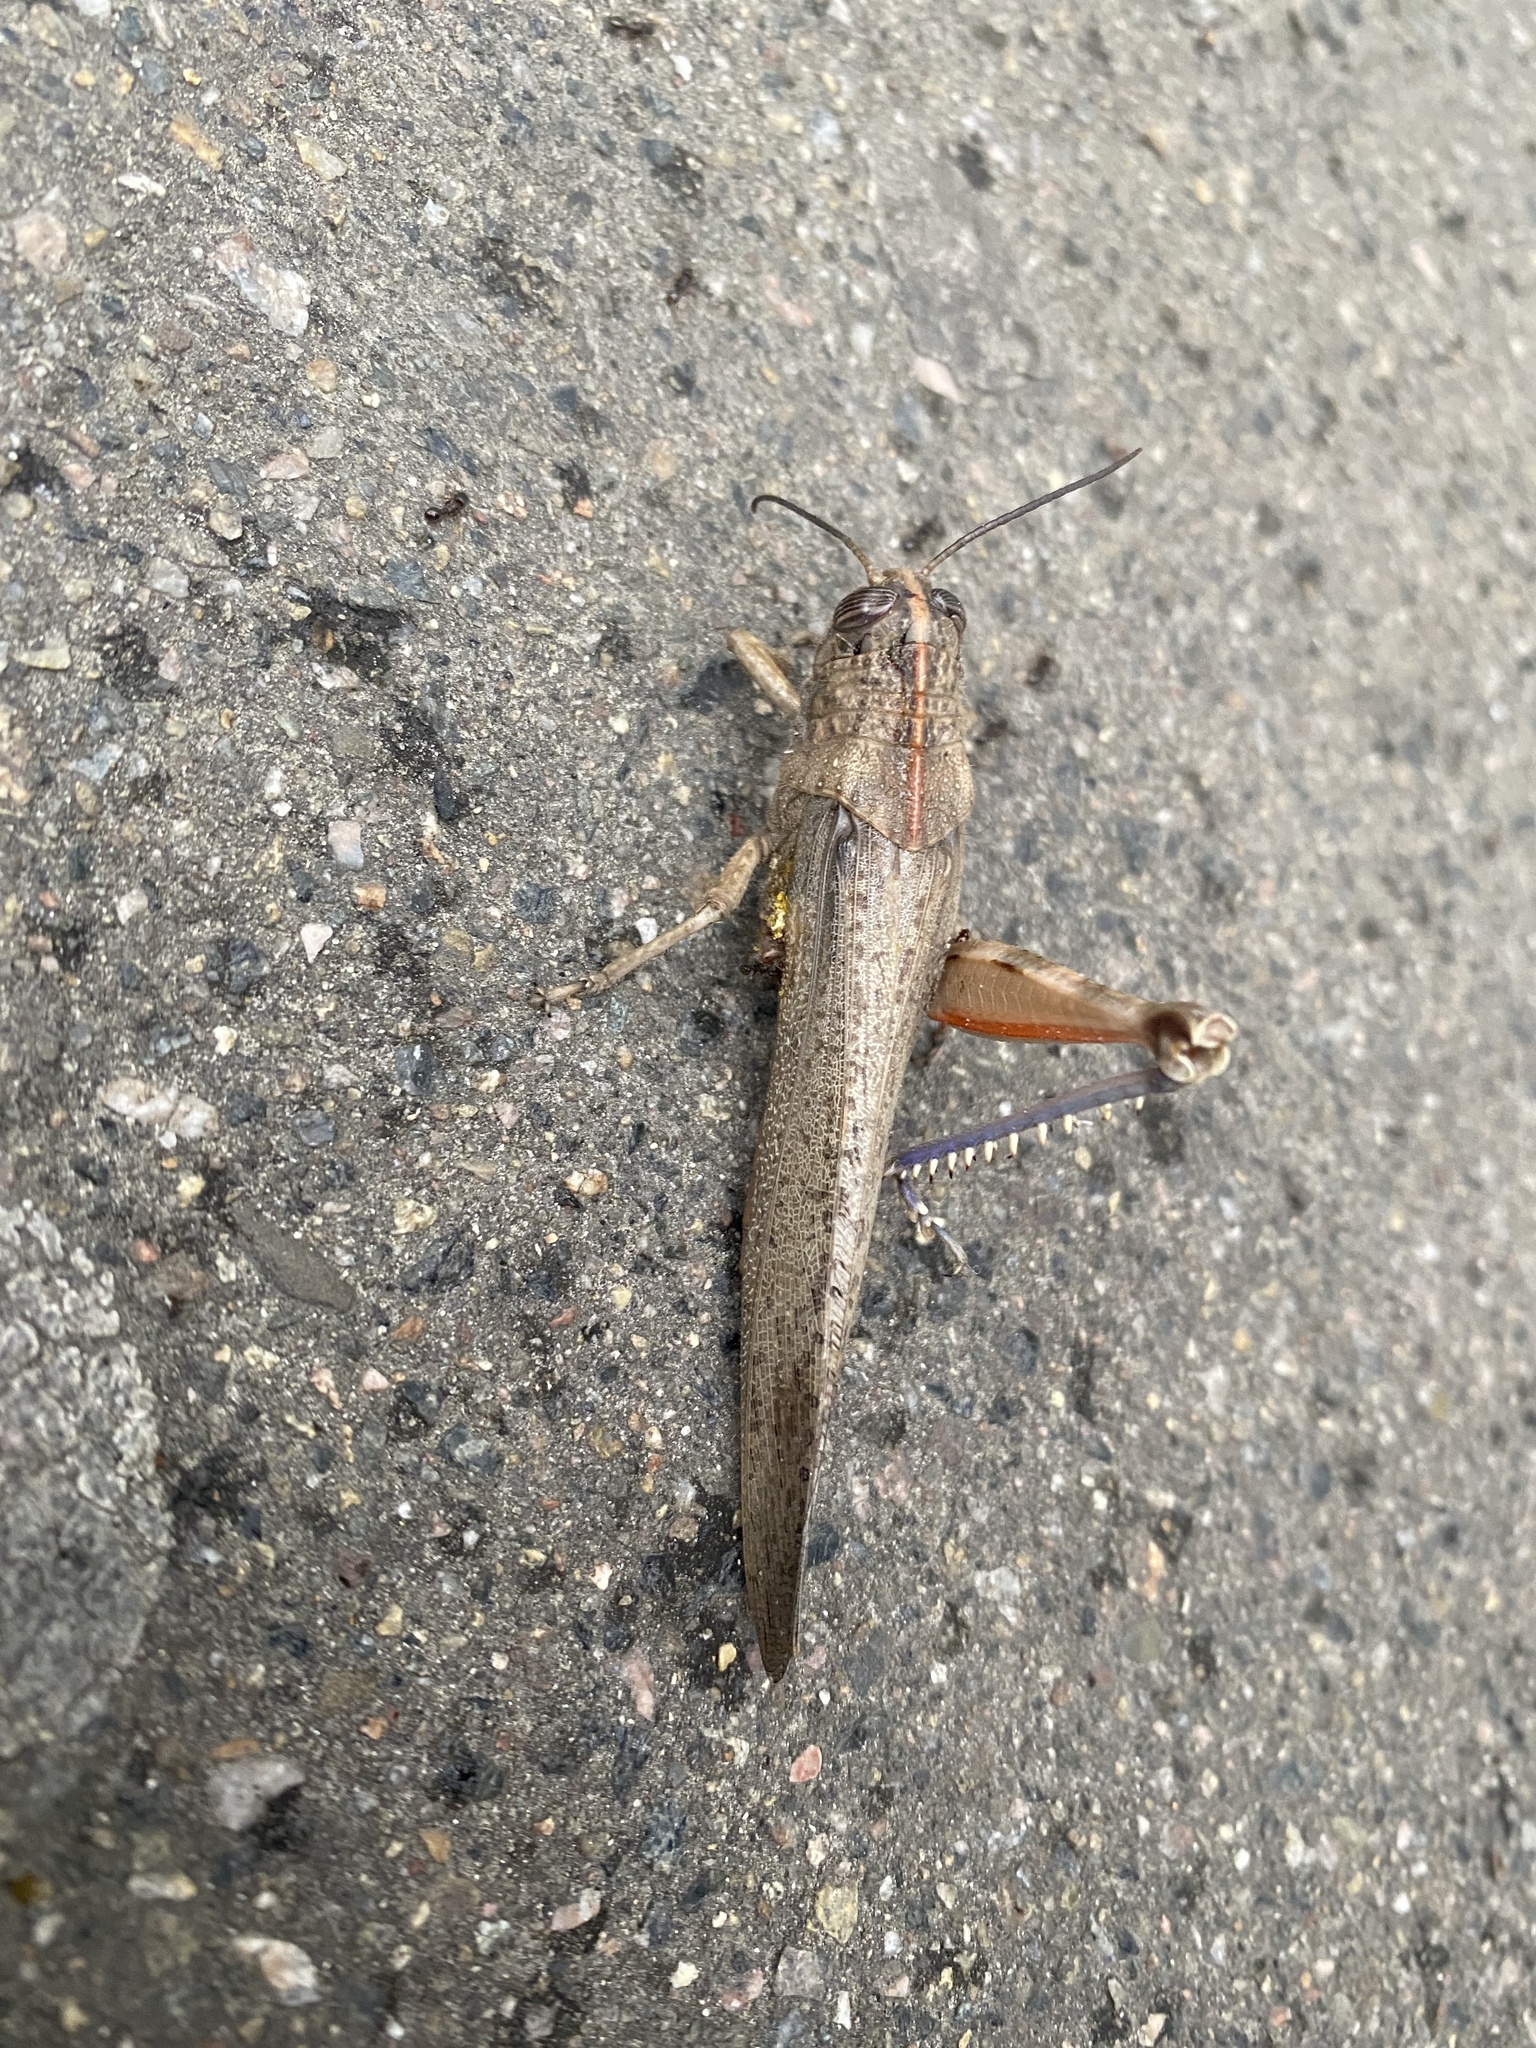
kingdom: Animalia
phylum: Arthropoda
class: Insecta
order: Orthoptera
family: Acrididae
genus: Anacridium
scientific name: Anacridium aegyptium
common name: Egyptian grasshopper
